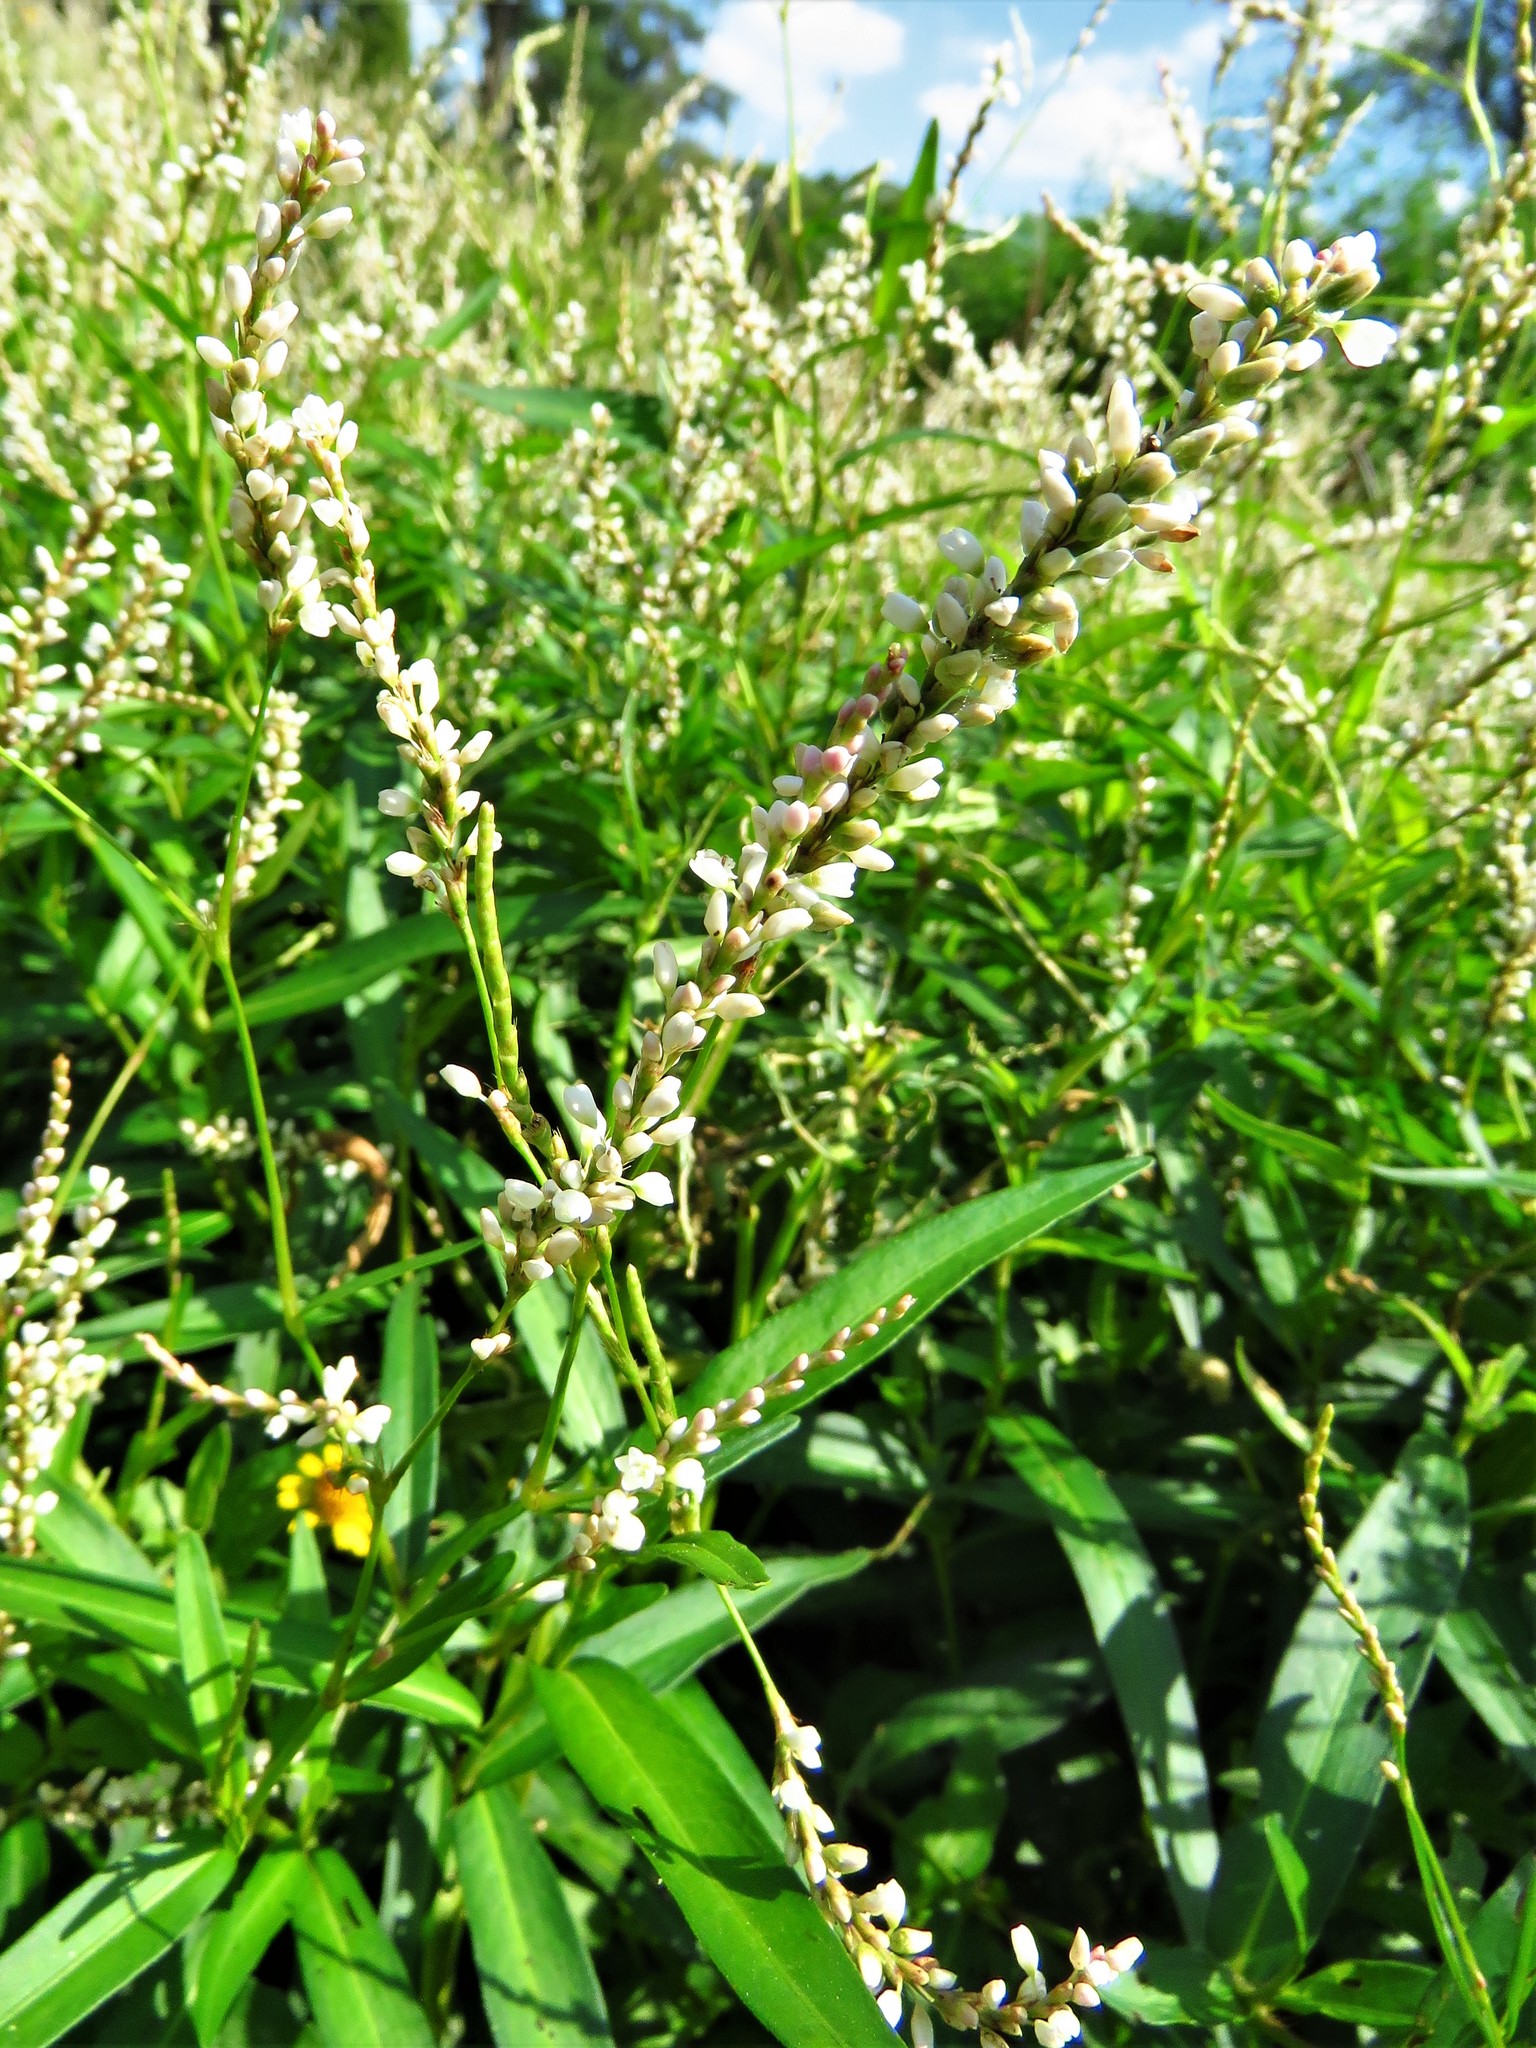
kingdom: Plantae
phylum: Tracheophyta
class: Magnoliopsida
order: Caryophyllales
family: Polygonaceae
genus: Persicaria
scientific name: Persicaria hydropiperoides
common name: Swamp smartweed
